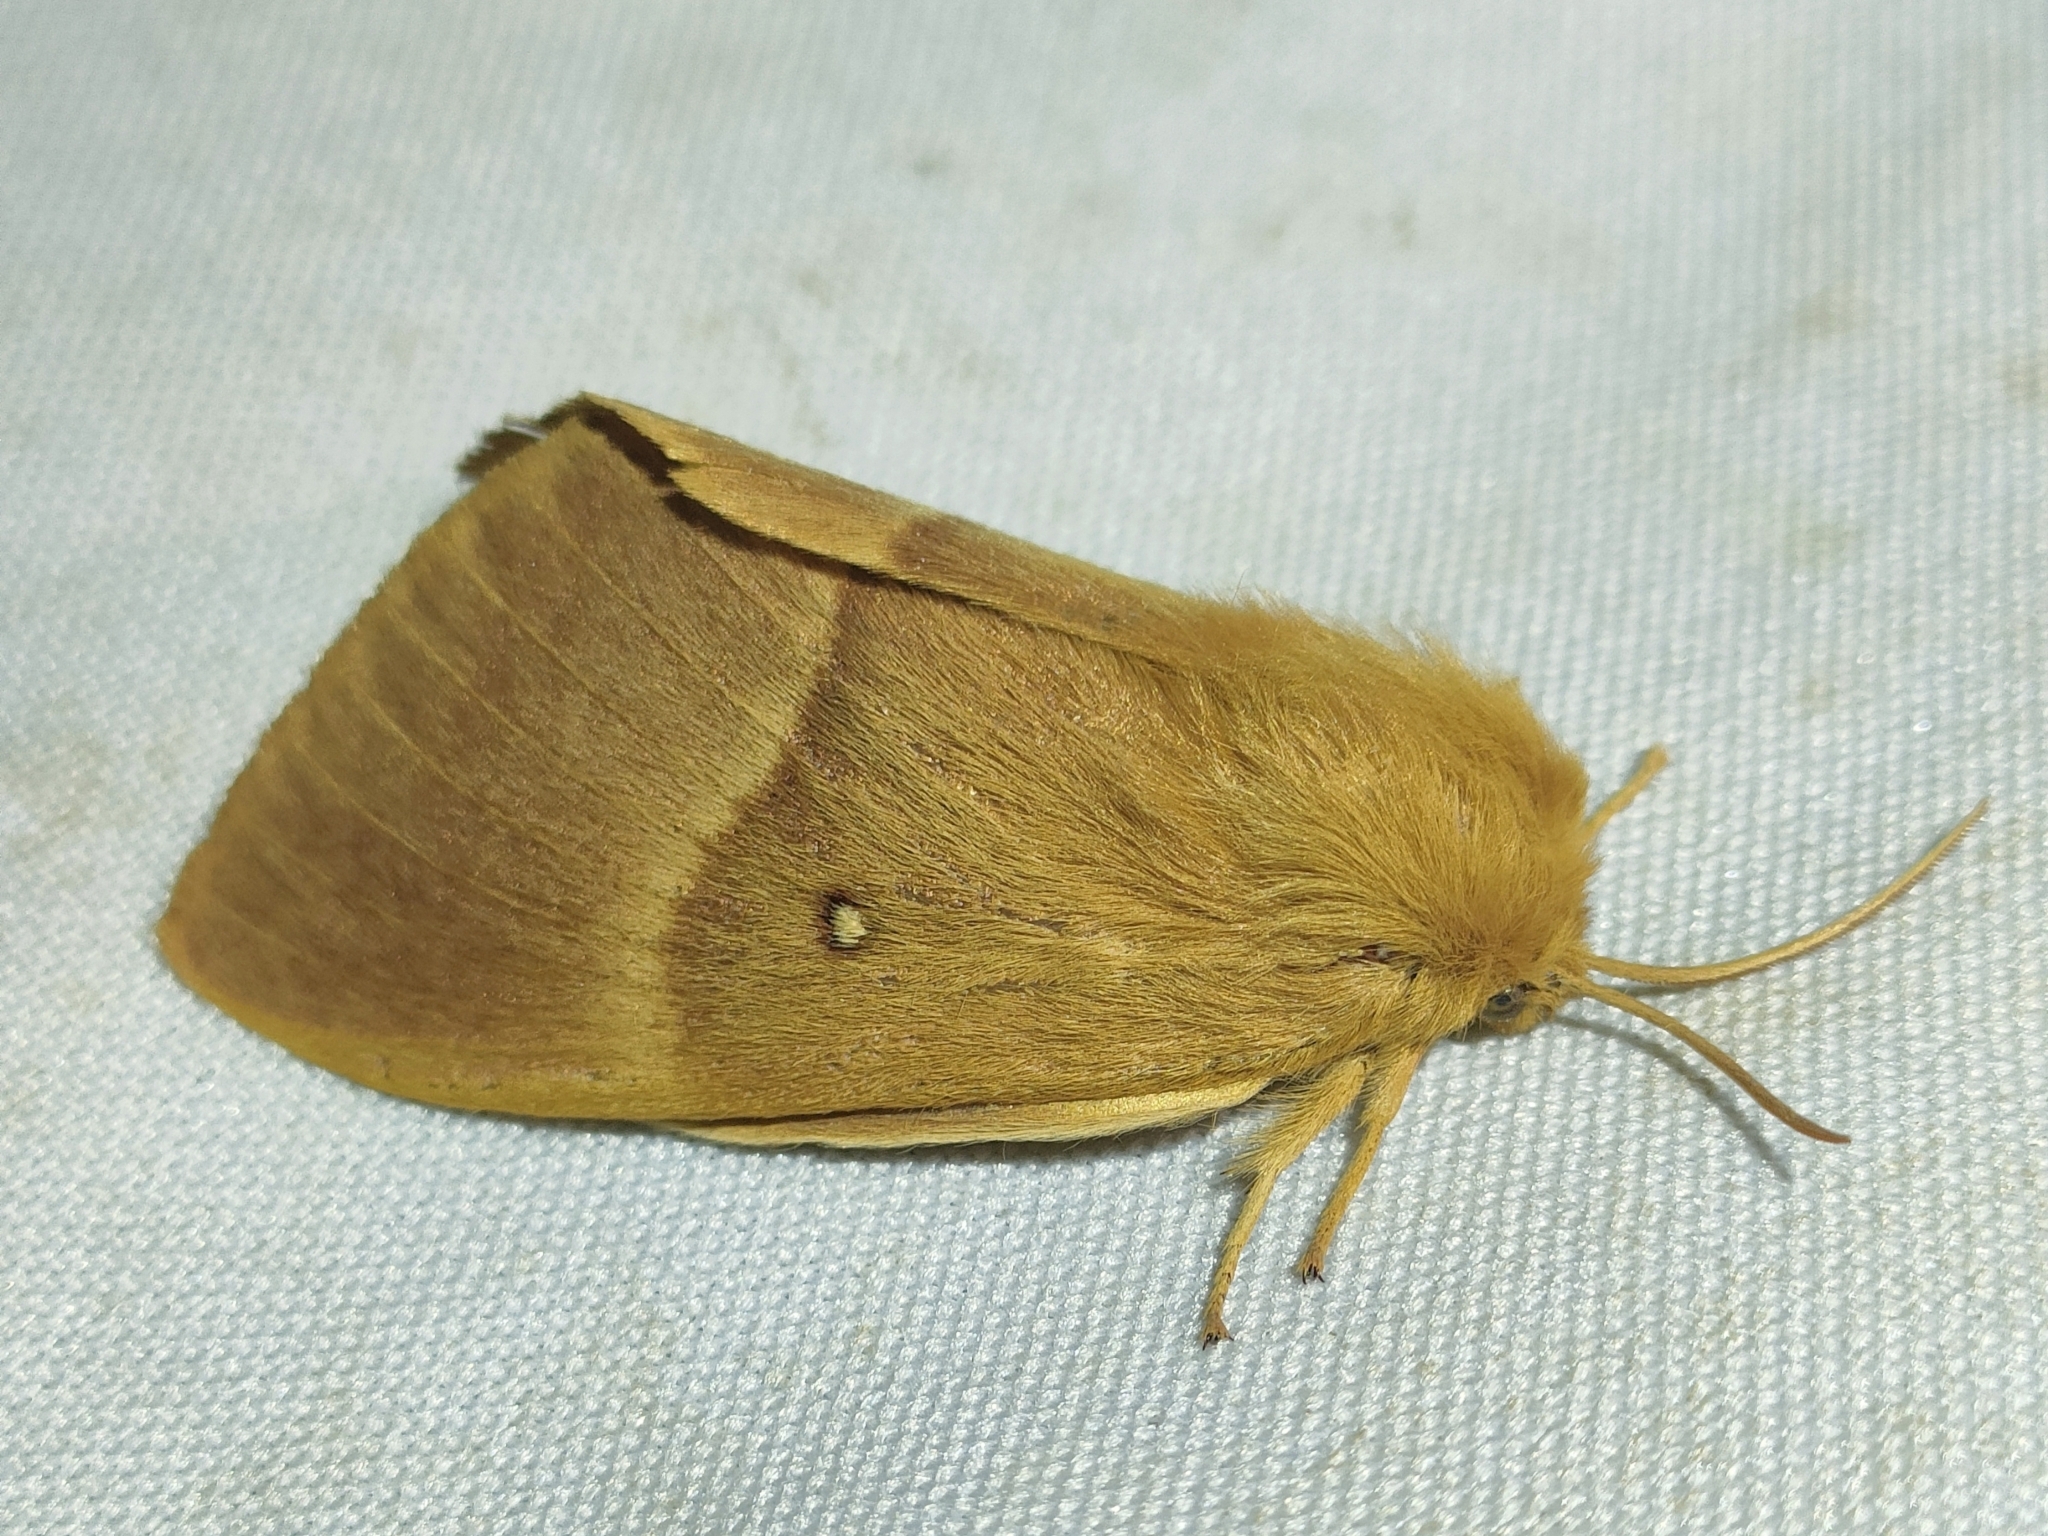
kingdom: Animalia
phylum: Arthropoda
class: Insecta
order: Lepidoptera
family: Lasiocampidae
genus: Lasiocampa
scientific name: Lasiocampa quercus
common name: Oak eggar
